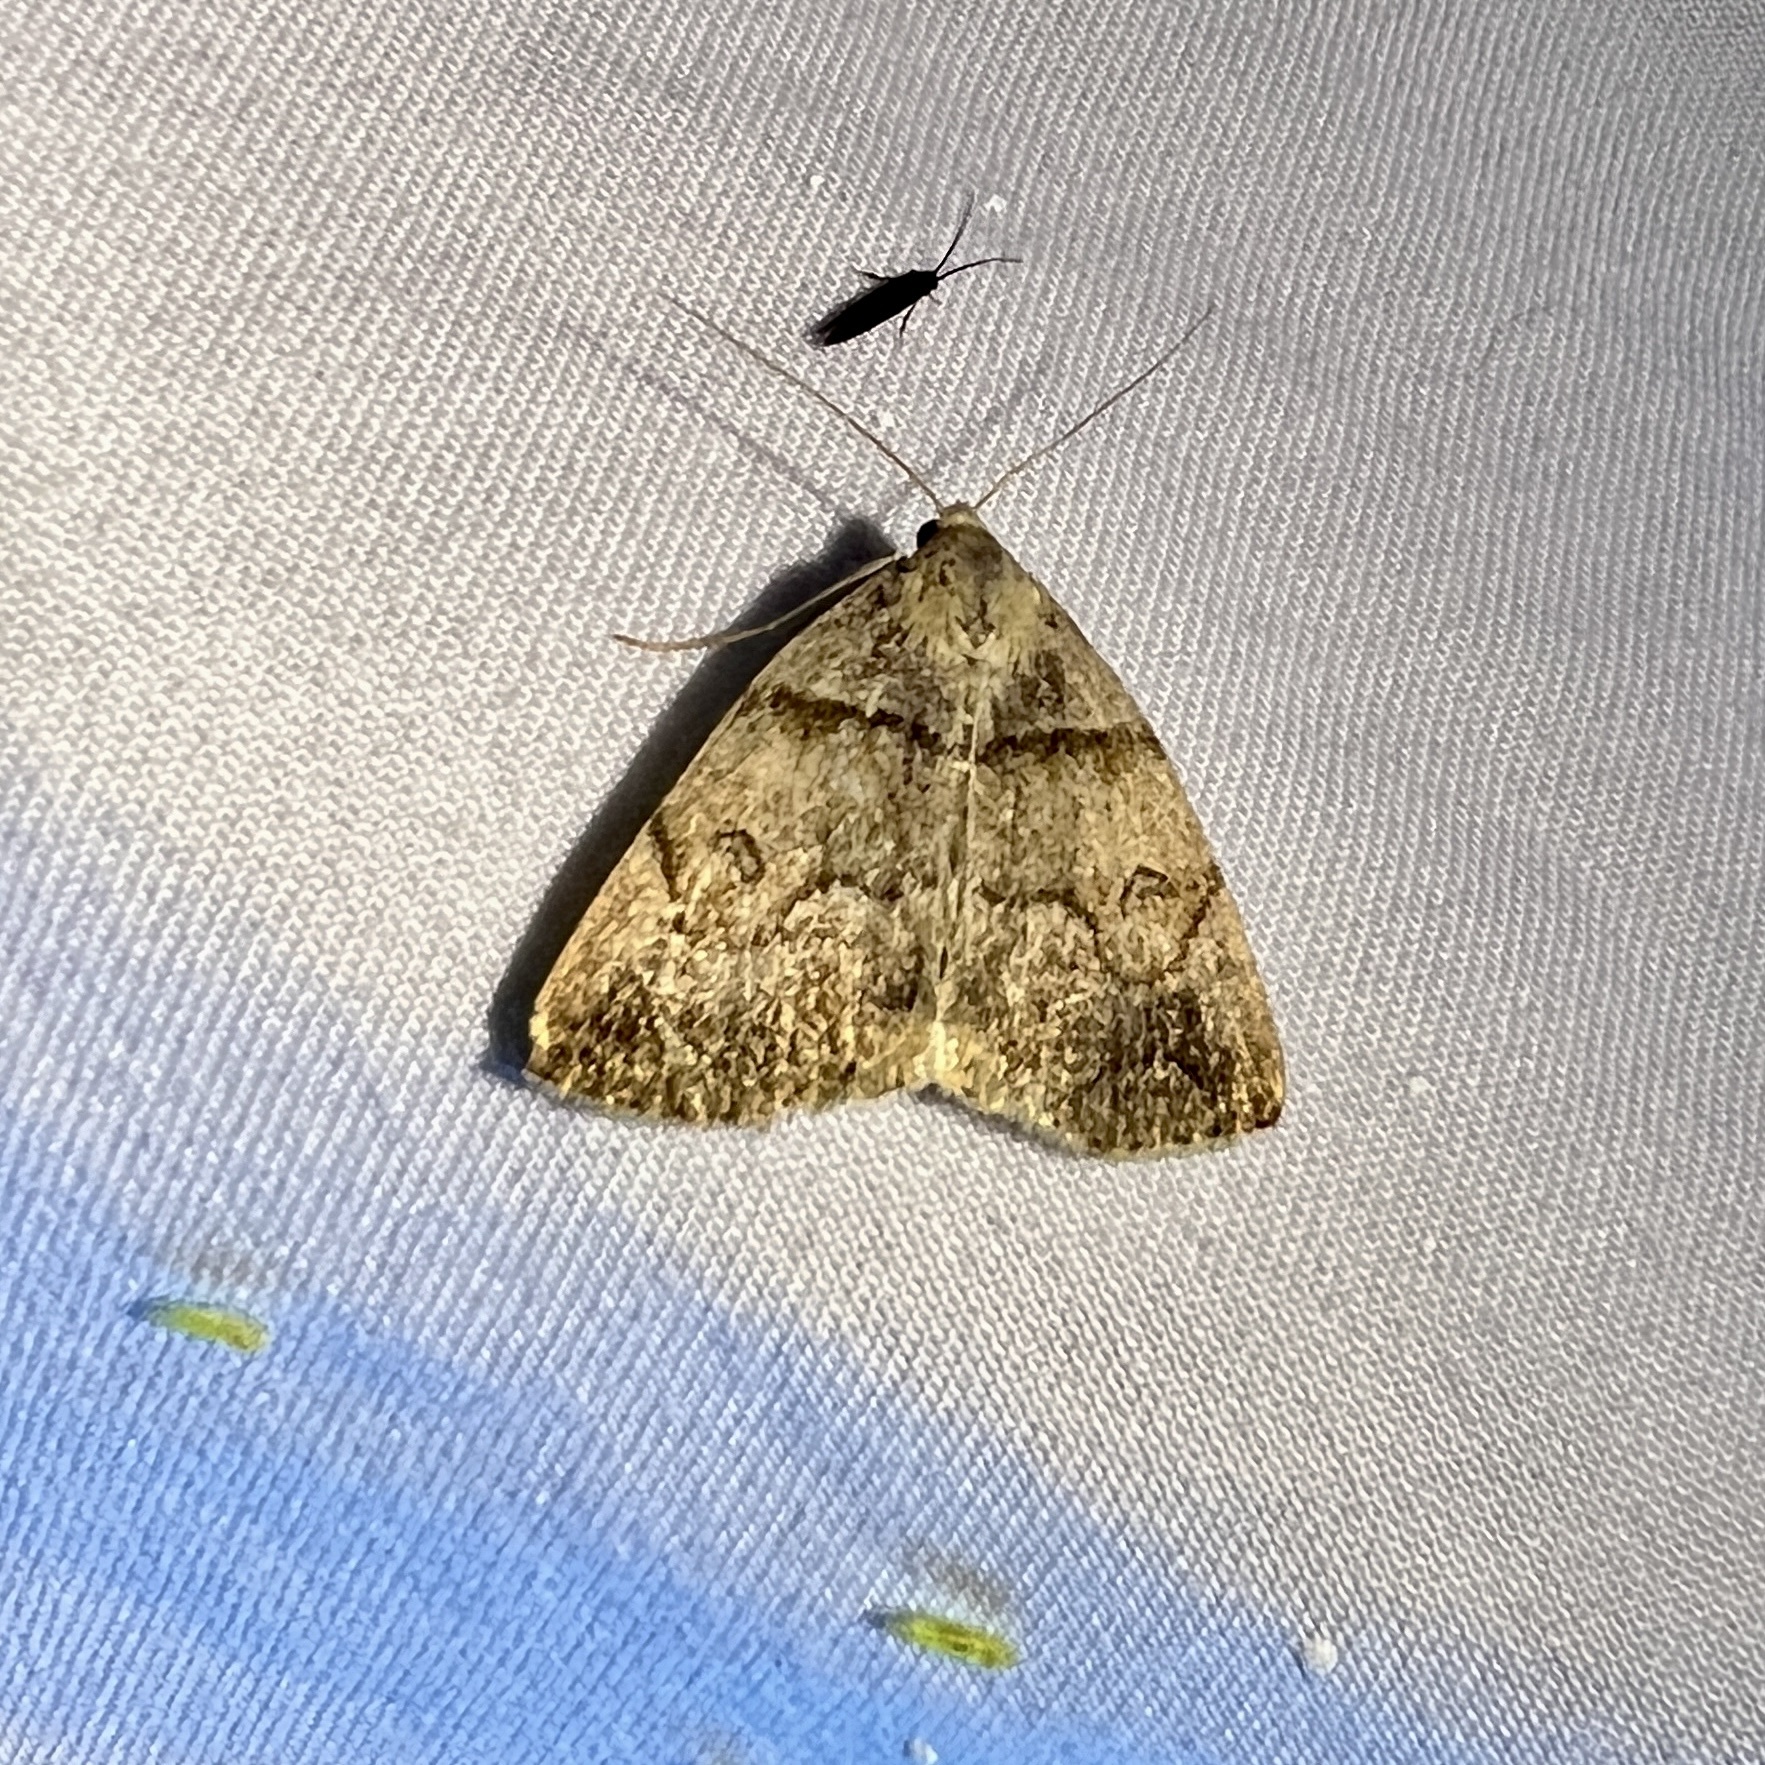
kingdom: Animalia
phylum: Arthropoda
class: Insecta
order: Lepidoptera
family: Erebidae
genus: Zanclognatha
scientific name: Zanclognatha laevigata
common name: Variable fan-foot
